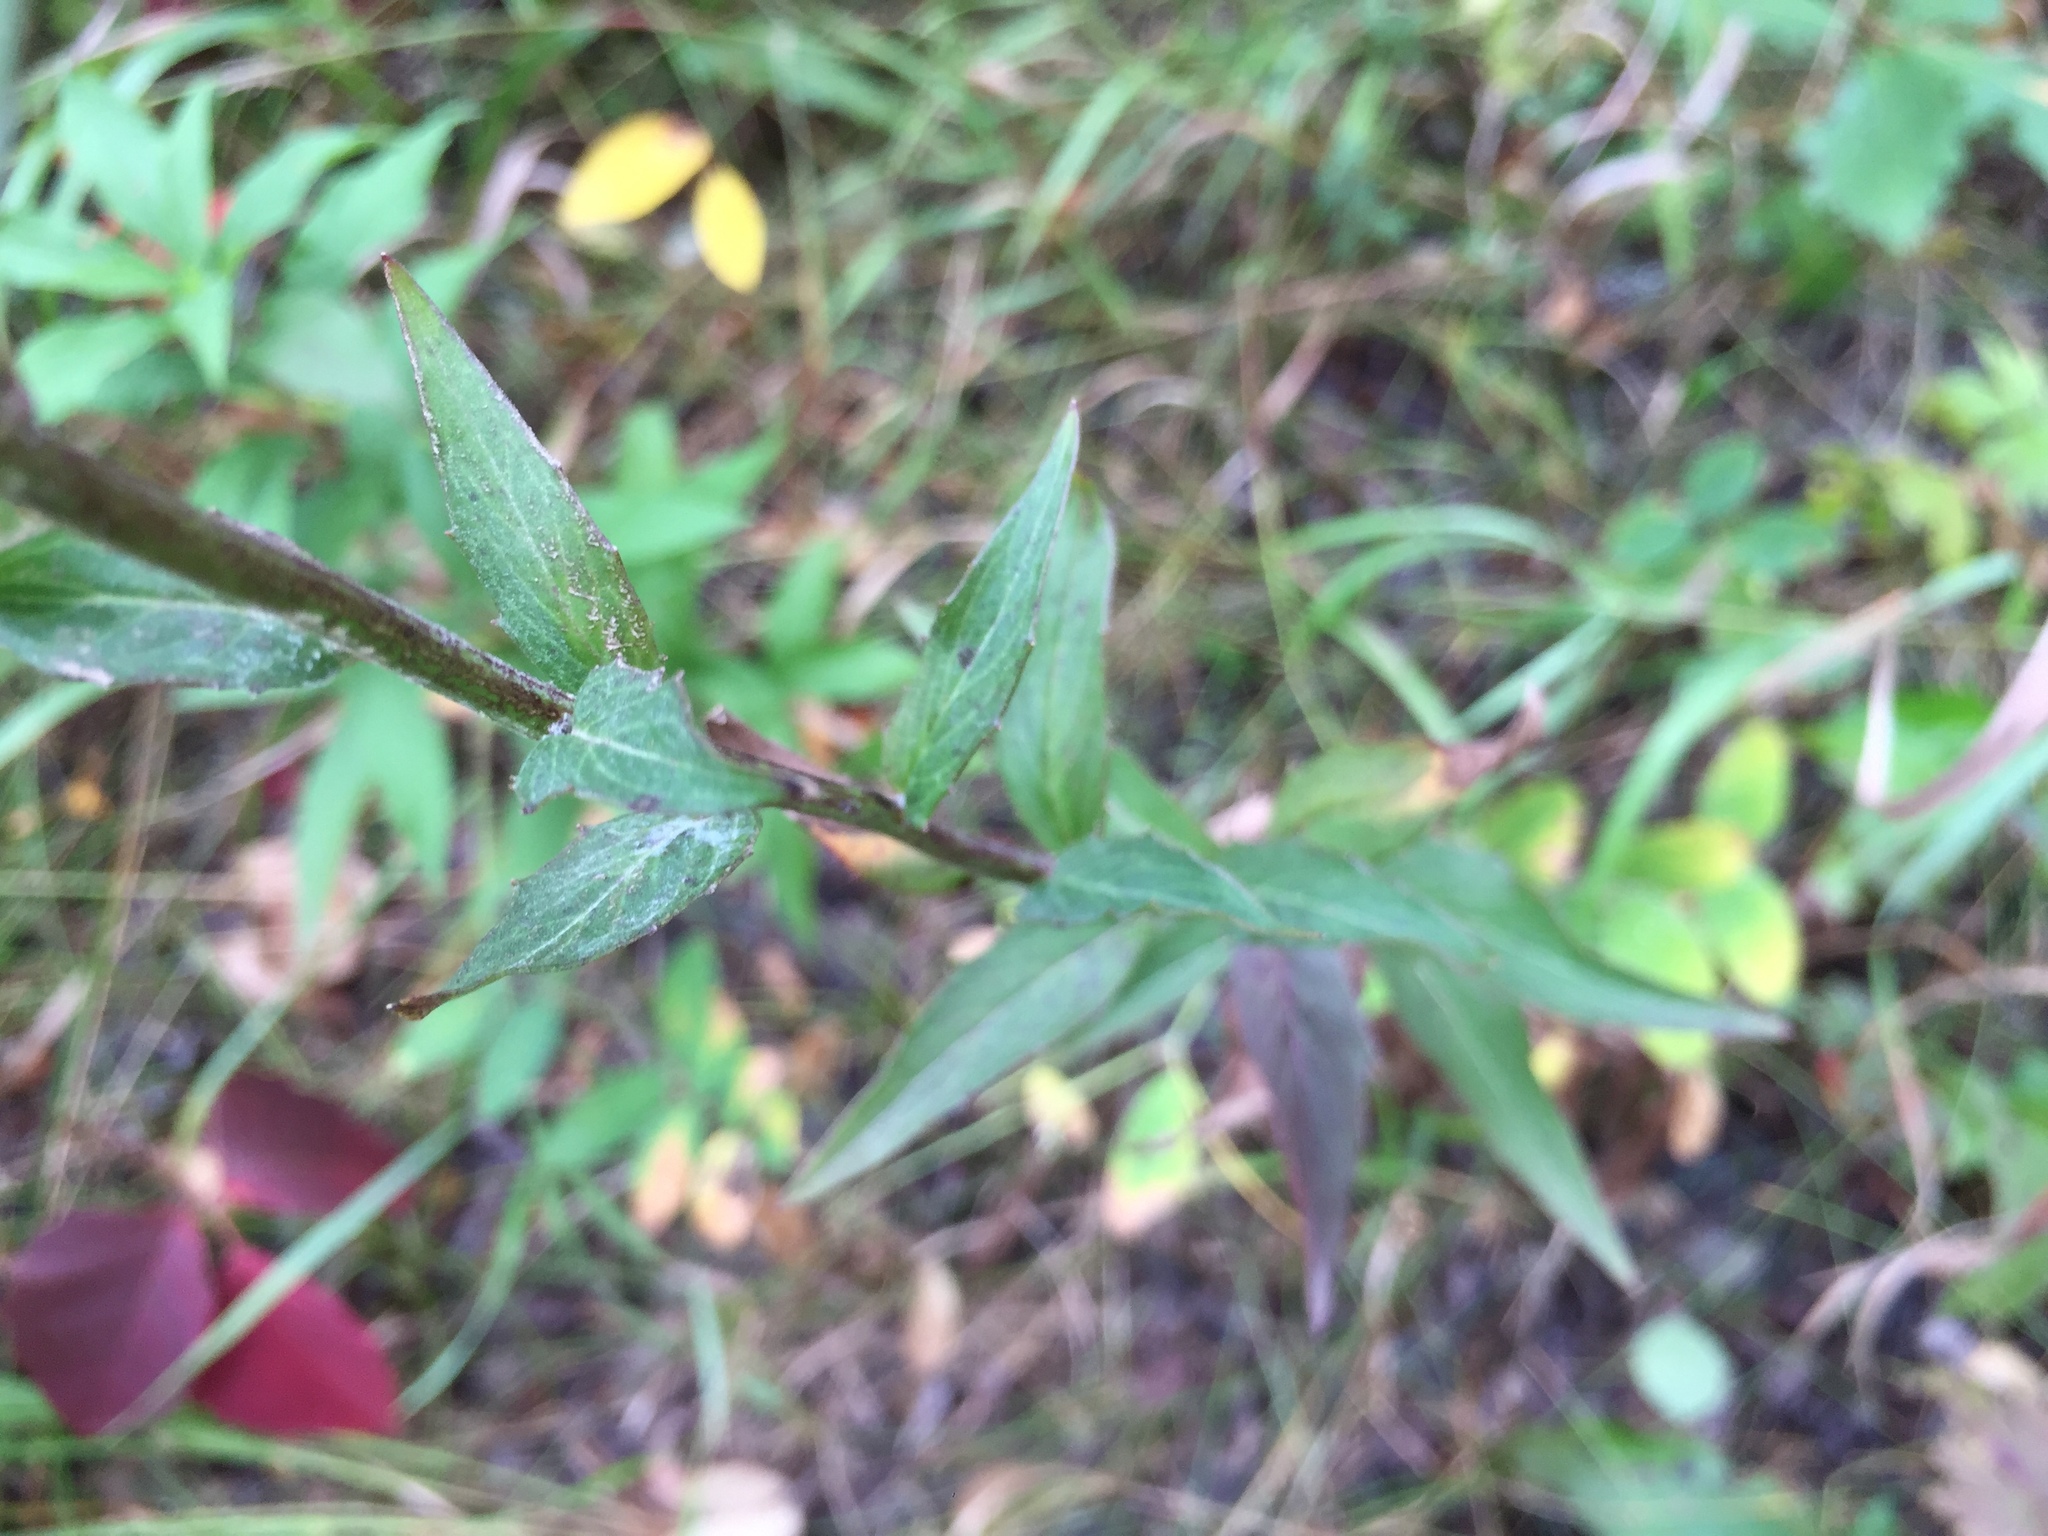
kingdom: Plantae
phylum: Tracheophyta
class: Magnoliopsida
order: Asterales
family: Asteraceae
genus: Hieracium
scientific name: Hieracium umbellatum
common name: Northern hawkweed
